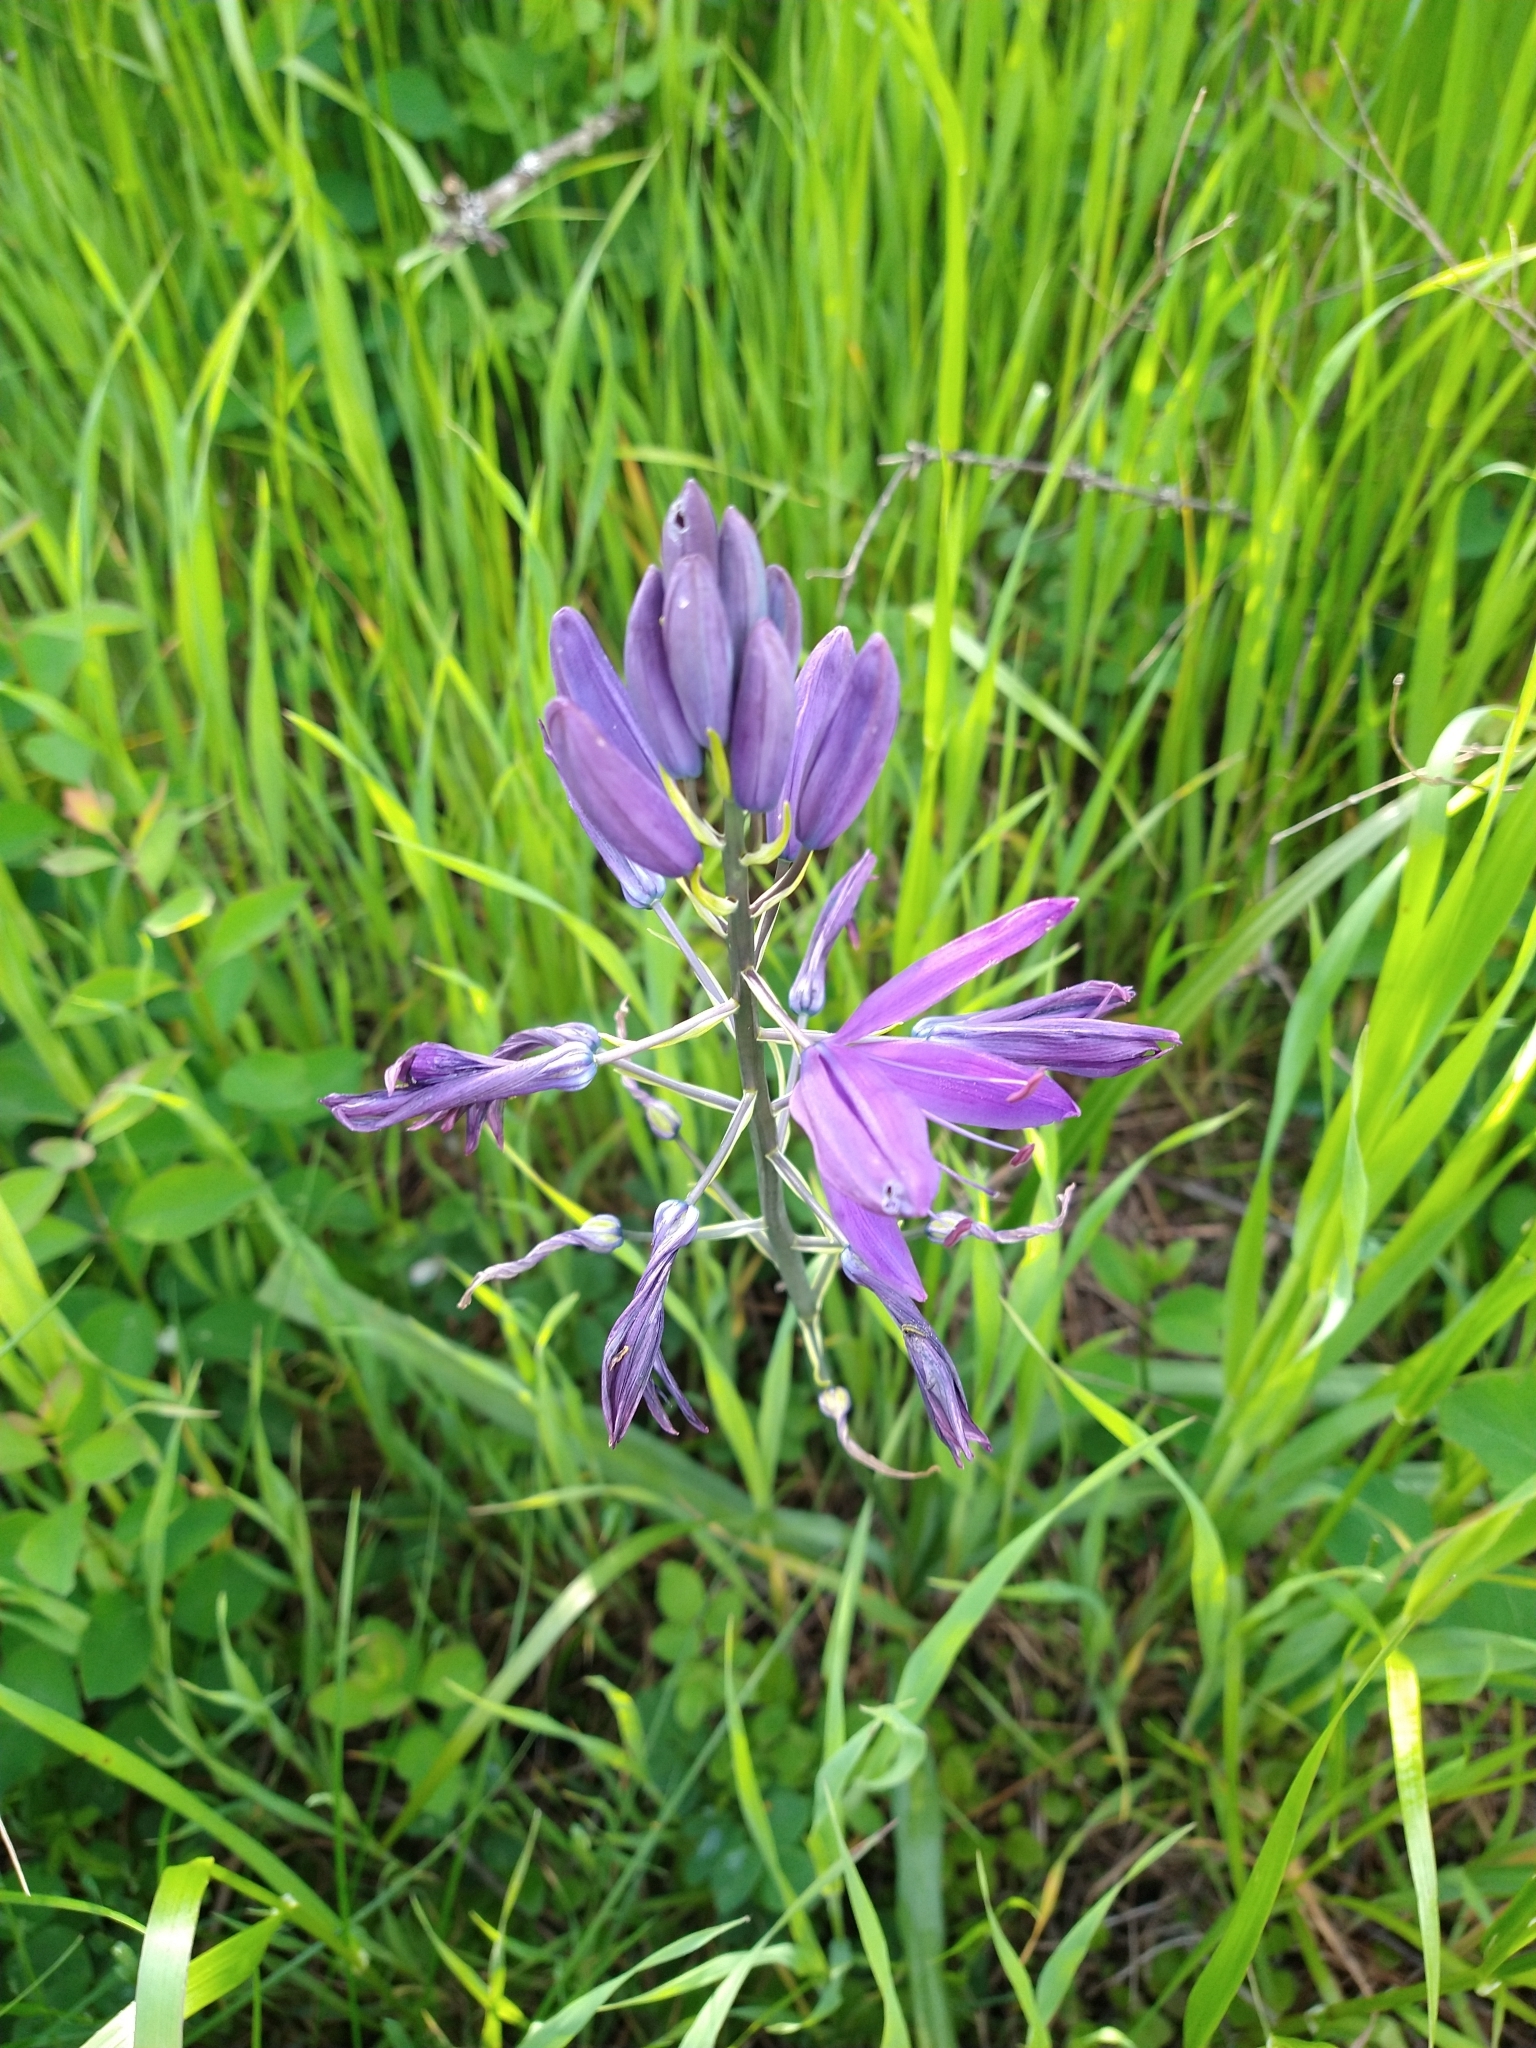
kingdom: Plantae
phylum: Tracheophyta
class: Liliopsida
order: Asparagales
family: Asparagaceae
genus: Camassia
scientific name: Camassia leichtlinii
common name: Leichtlin's camas
